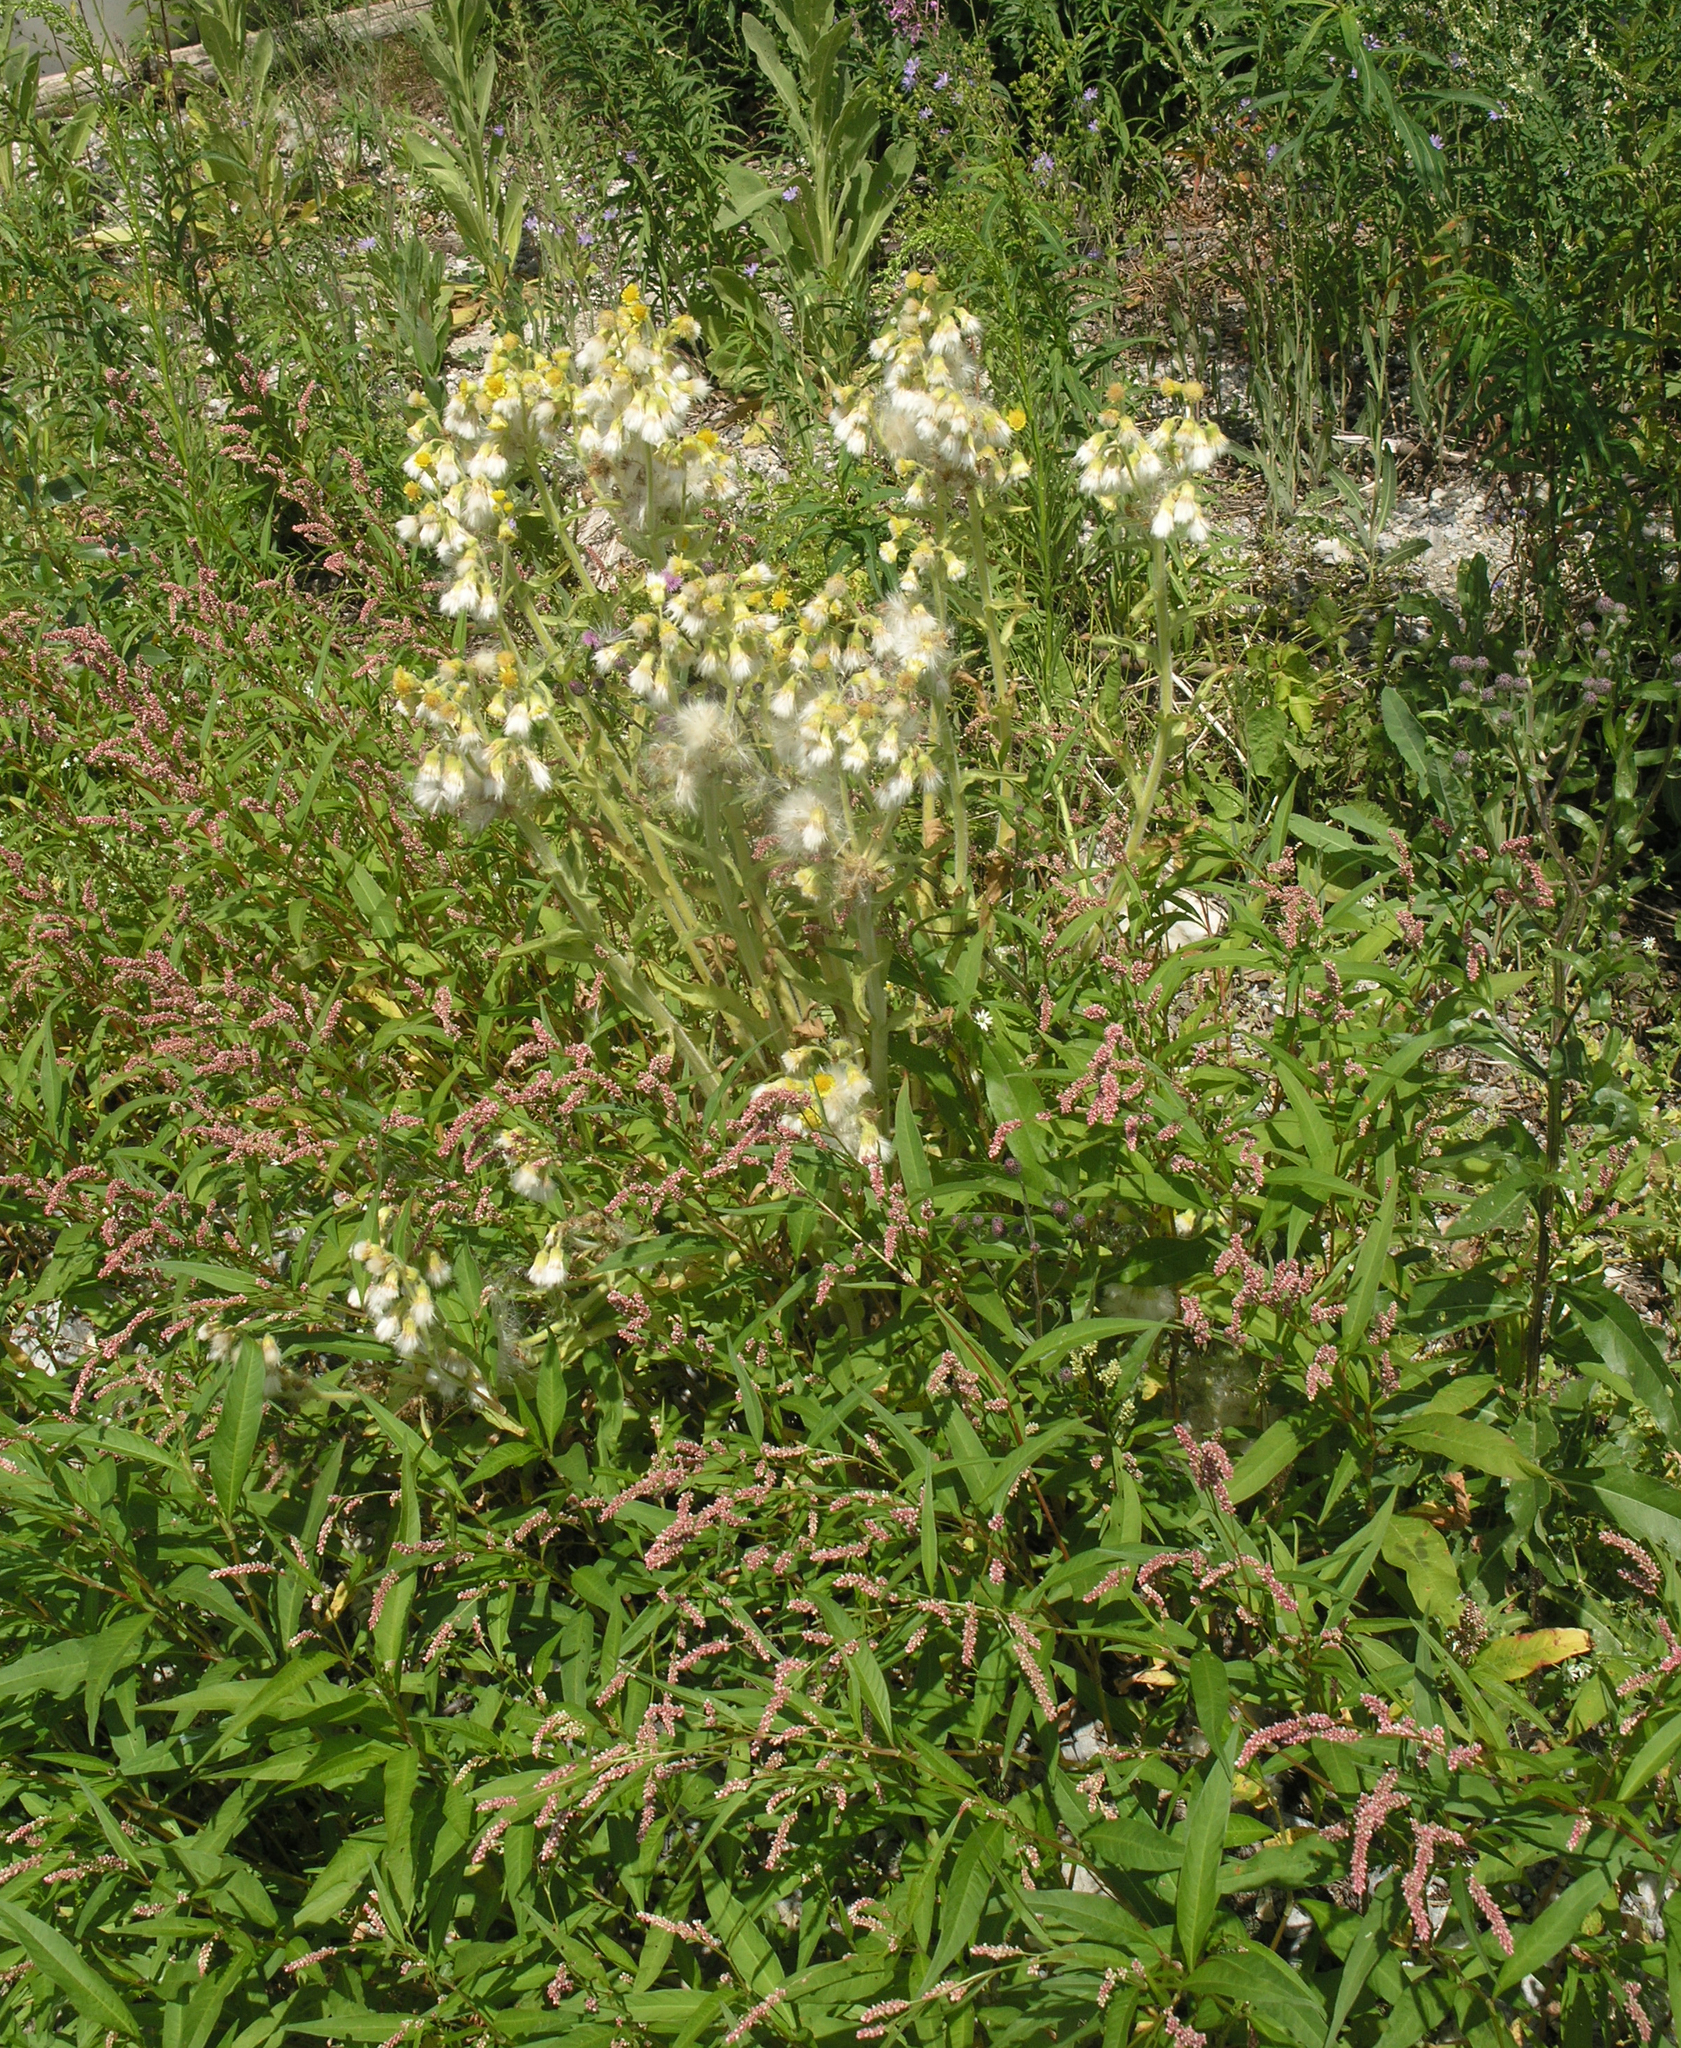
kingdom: Plantae
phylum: Tracheophyta
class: Magnoliopsida
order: Caryophyllales
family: Polygonaceae
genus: Persicaria
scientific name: Persicaria lapathifolia
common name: Curlytop knotweed
